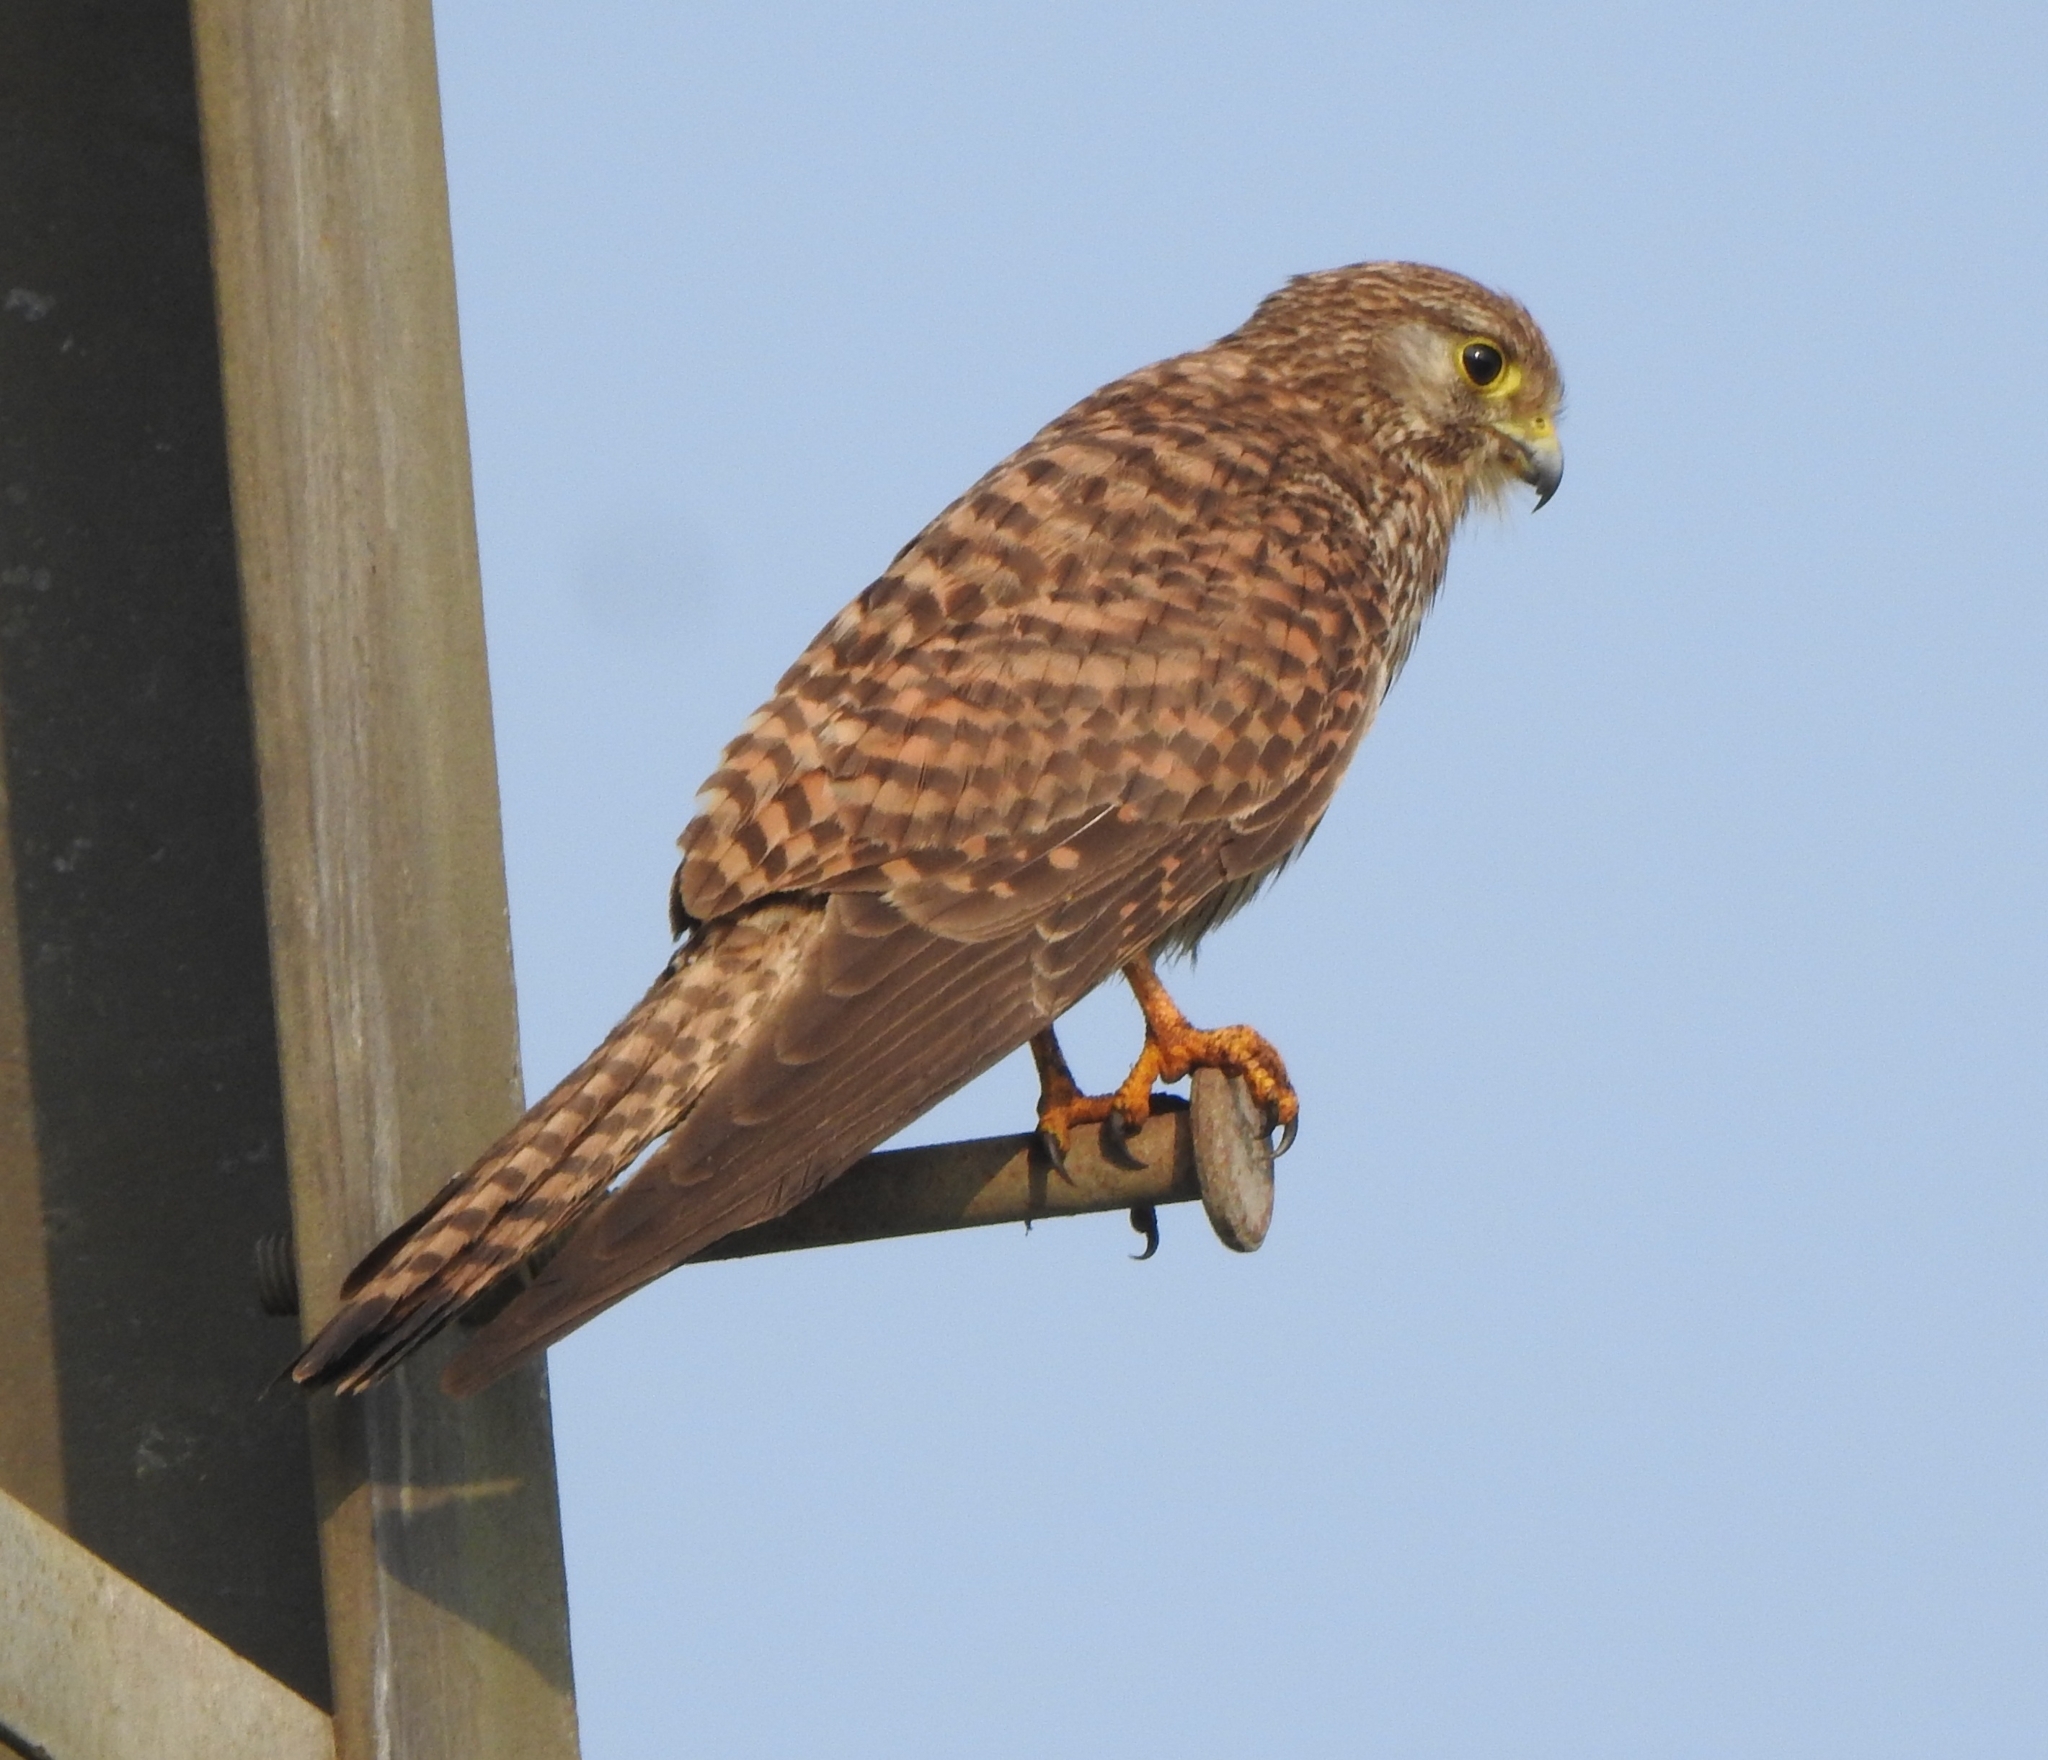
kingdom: Animalia
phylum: Chordata
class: Aves
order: Falconiformes
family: Falconidae
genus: Falco
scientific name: Falco tinnunculus
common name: Common kestrel
